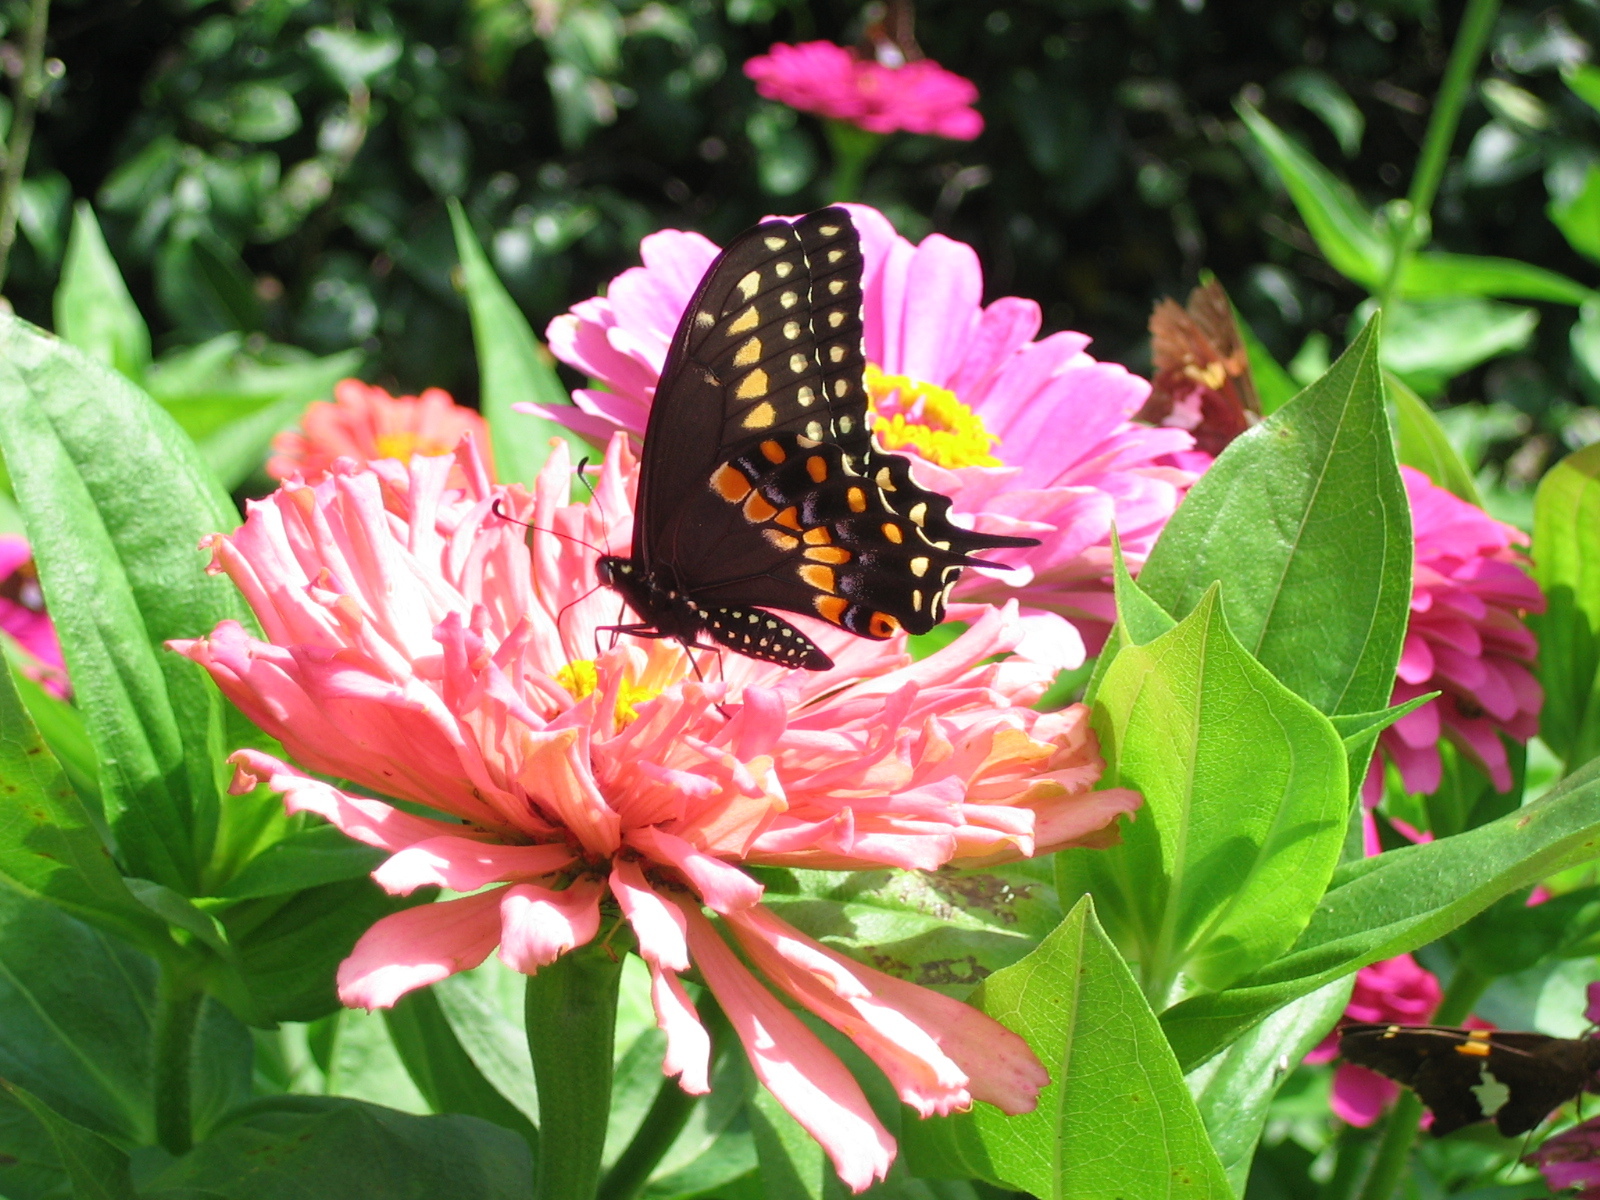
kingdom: Animalia
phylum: Arthropoda
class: Insecta
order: Lepidoptera
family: Papilionidae
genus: Papilio
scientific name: Papilio polyxenes
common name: Black swallowtail
